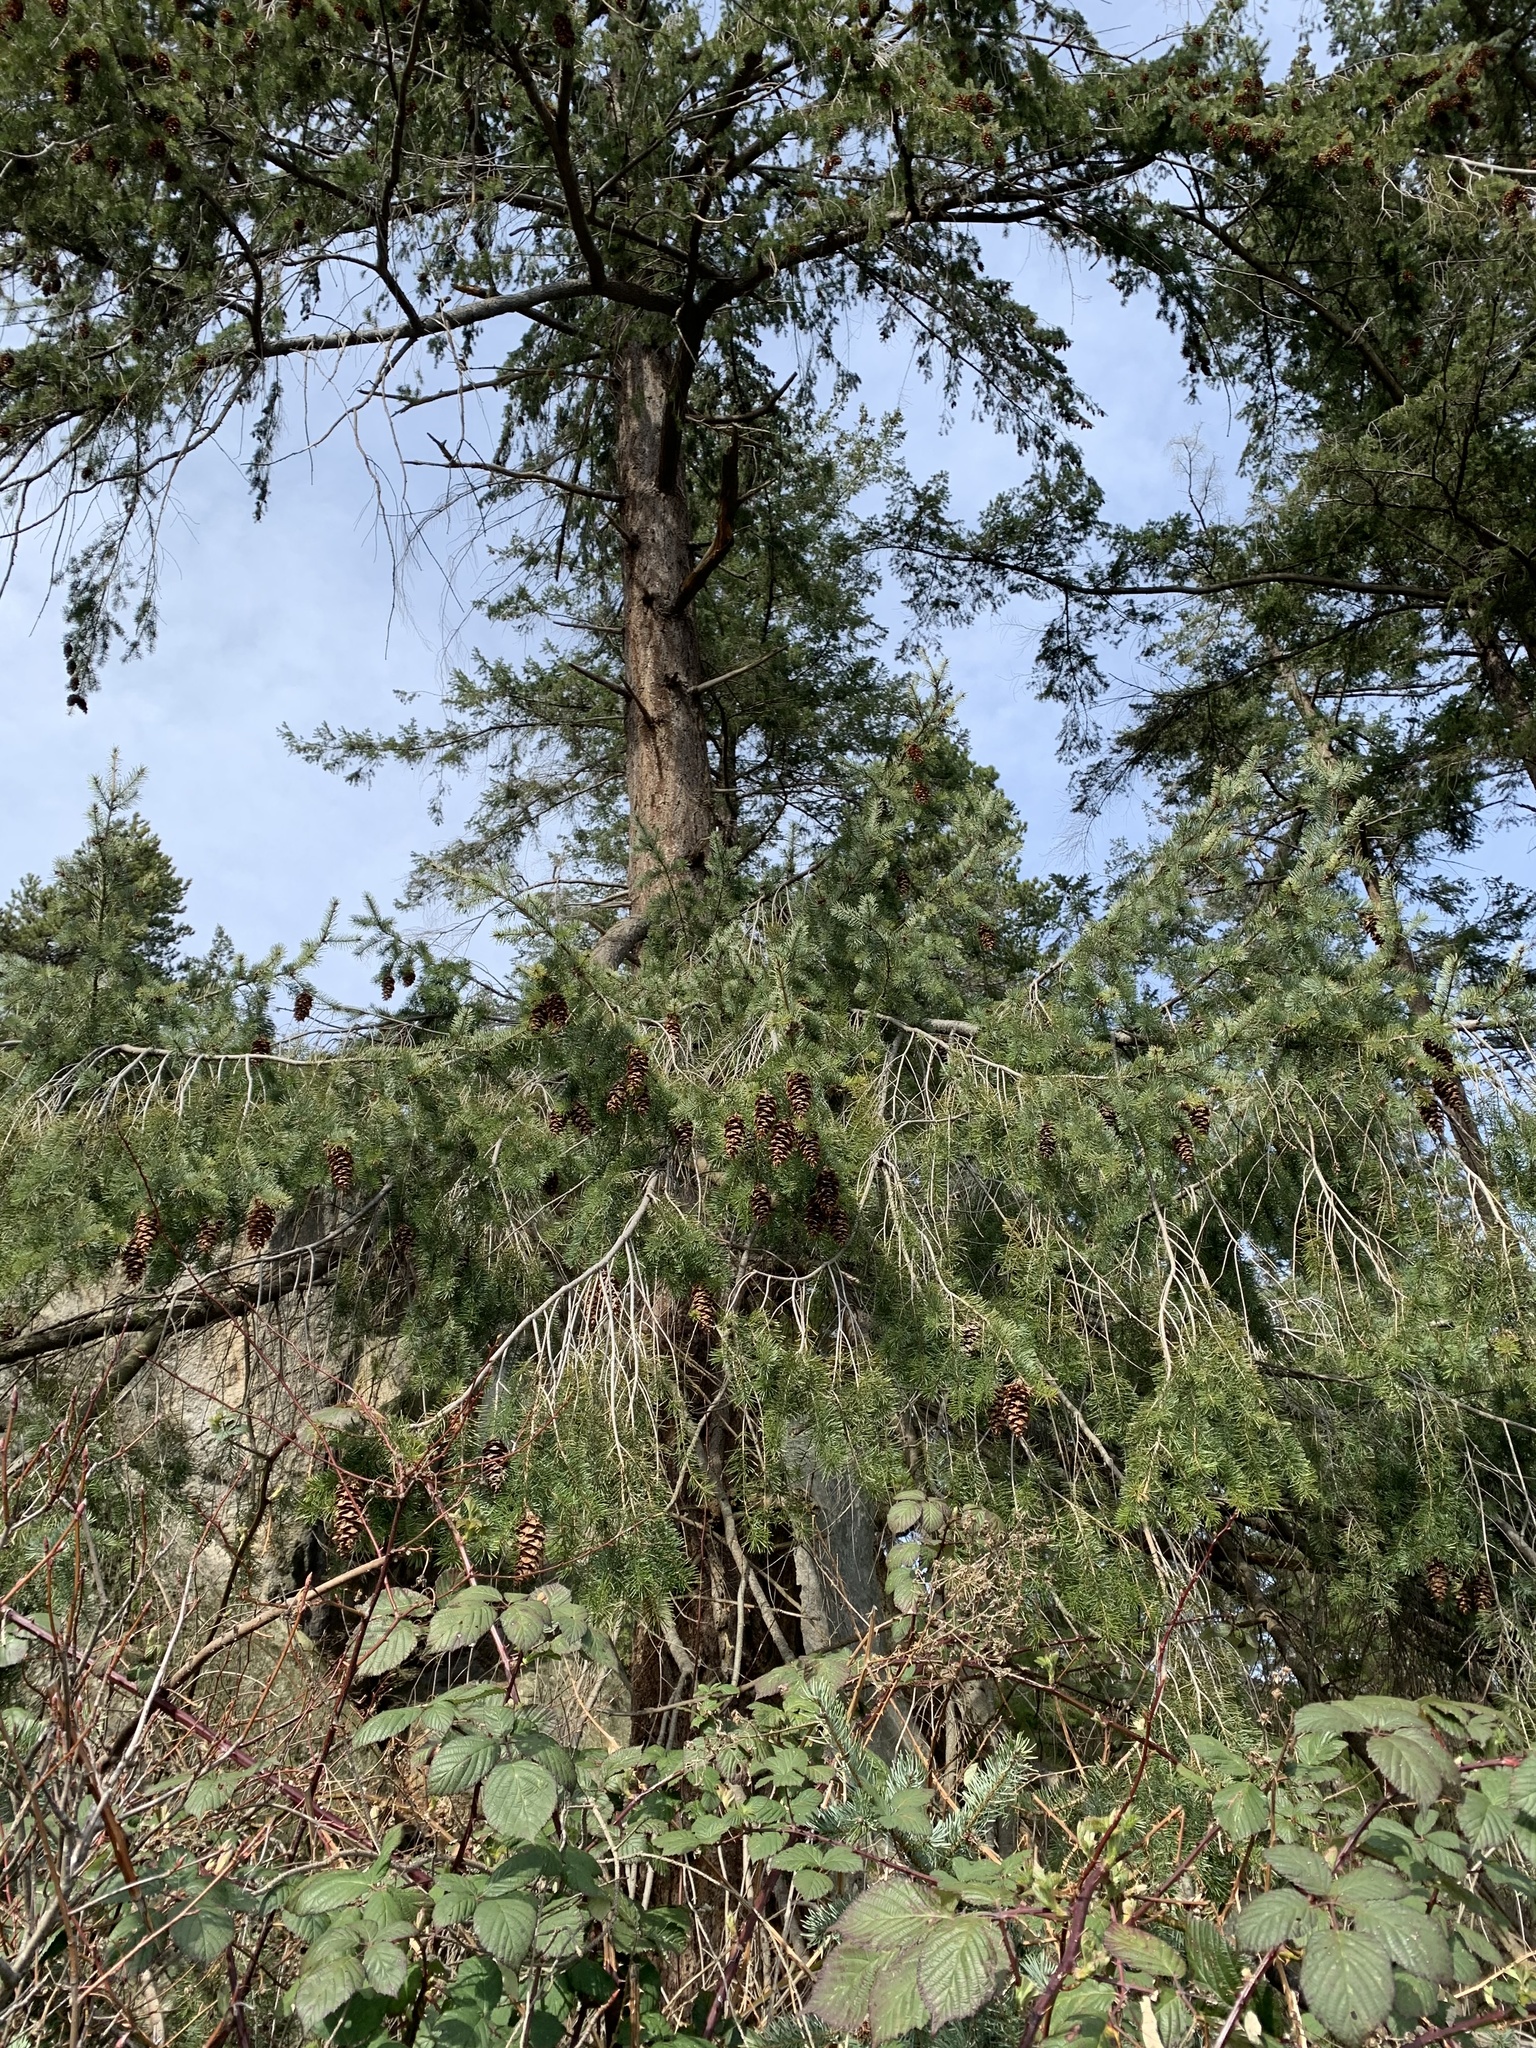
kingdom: Plantae
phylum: Tracheophyta
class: Pinopsida
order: Pinales
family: Pinaceae
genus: Pseudotsuga
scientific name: Pseudotsuga menziesii
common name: Douglas fir
